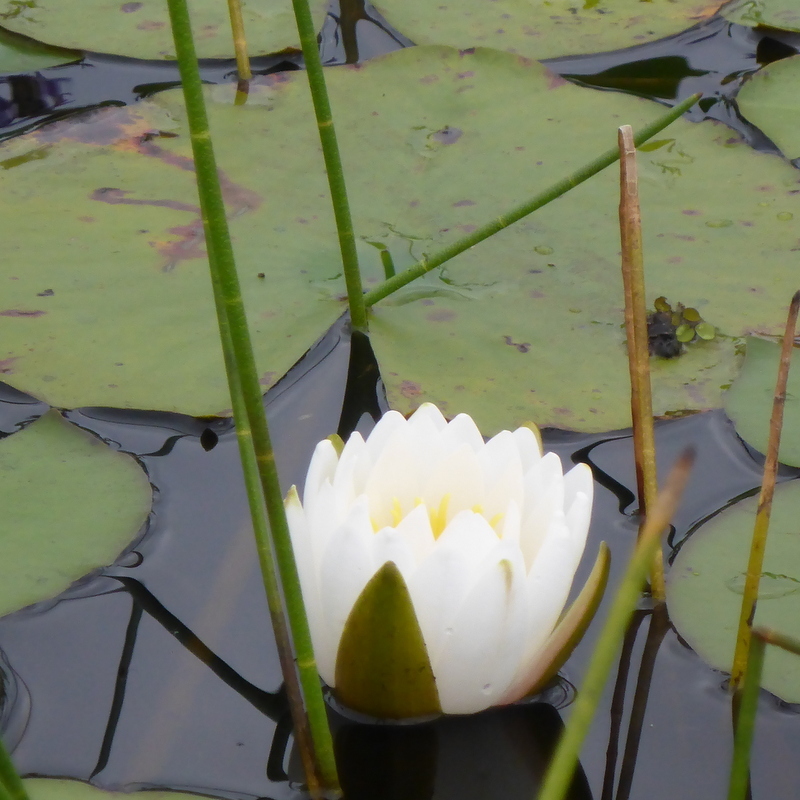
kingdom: Plantae
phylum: Tracheophyta
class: Magnoliopsida
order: Nymphaeales
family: Nymphaeaceae
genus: Nymphaea
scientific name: Nymphaea odorata
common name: Fragrant water-lily
